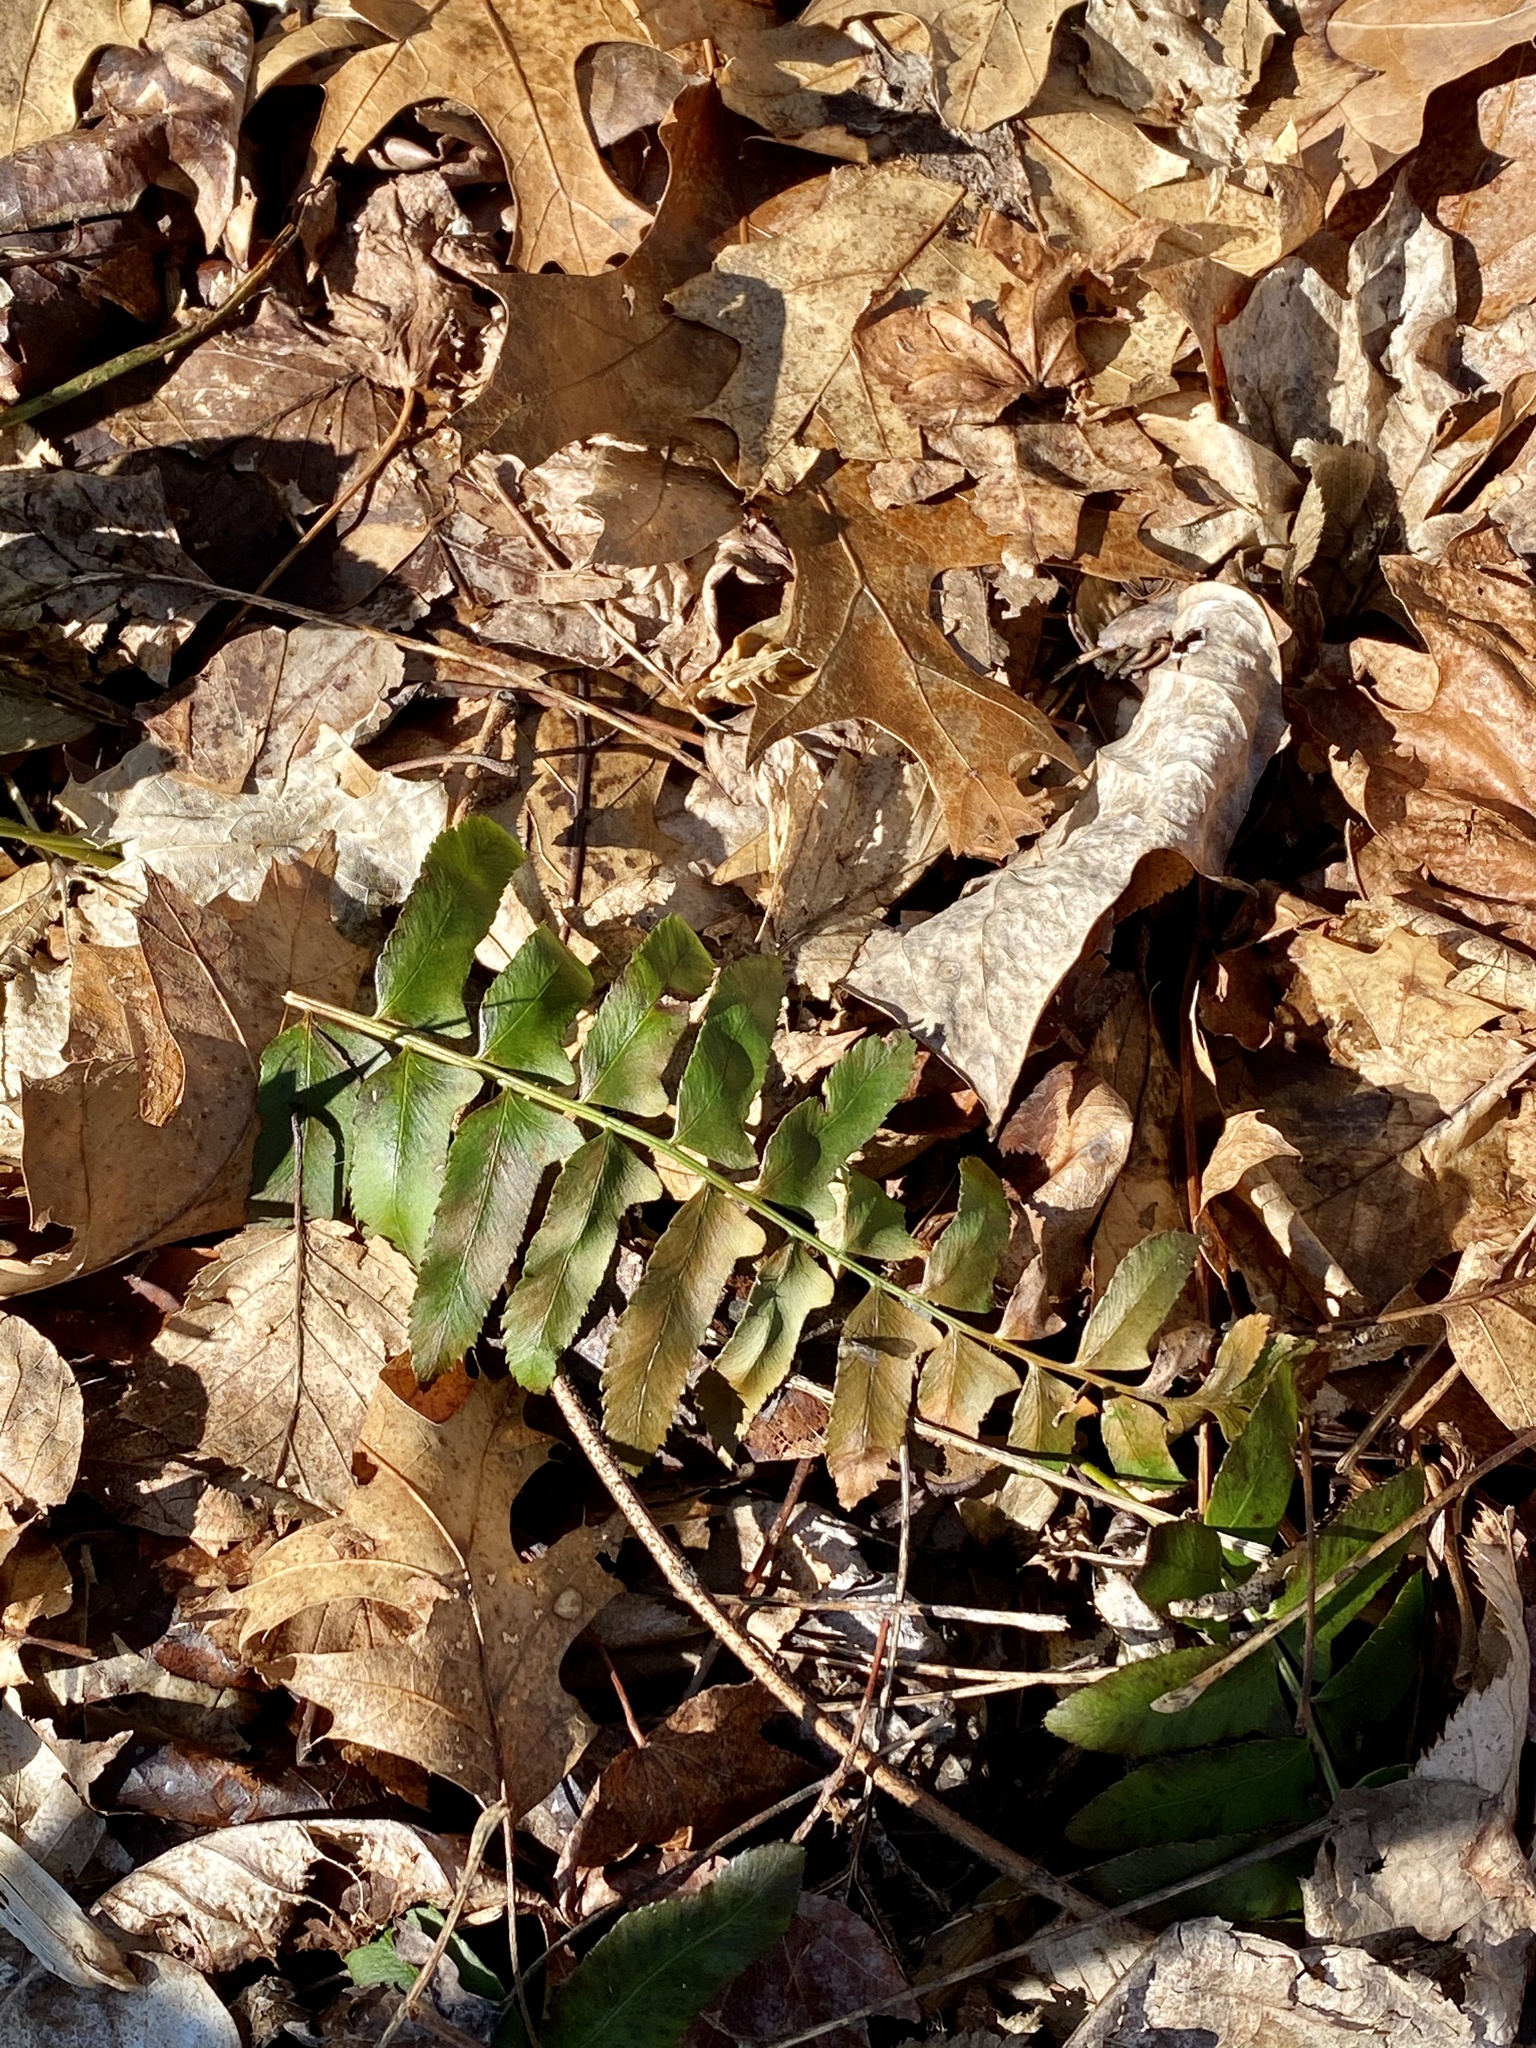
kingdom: Plantae
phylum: Tracheophyta
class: Polypodiopsida
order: Polypodiales
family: Dryopteridaceae
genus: Polystichum
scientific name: Polystichum acrostichoides
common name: Christmas fern
